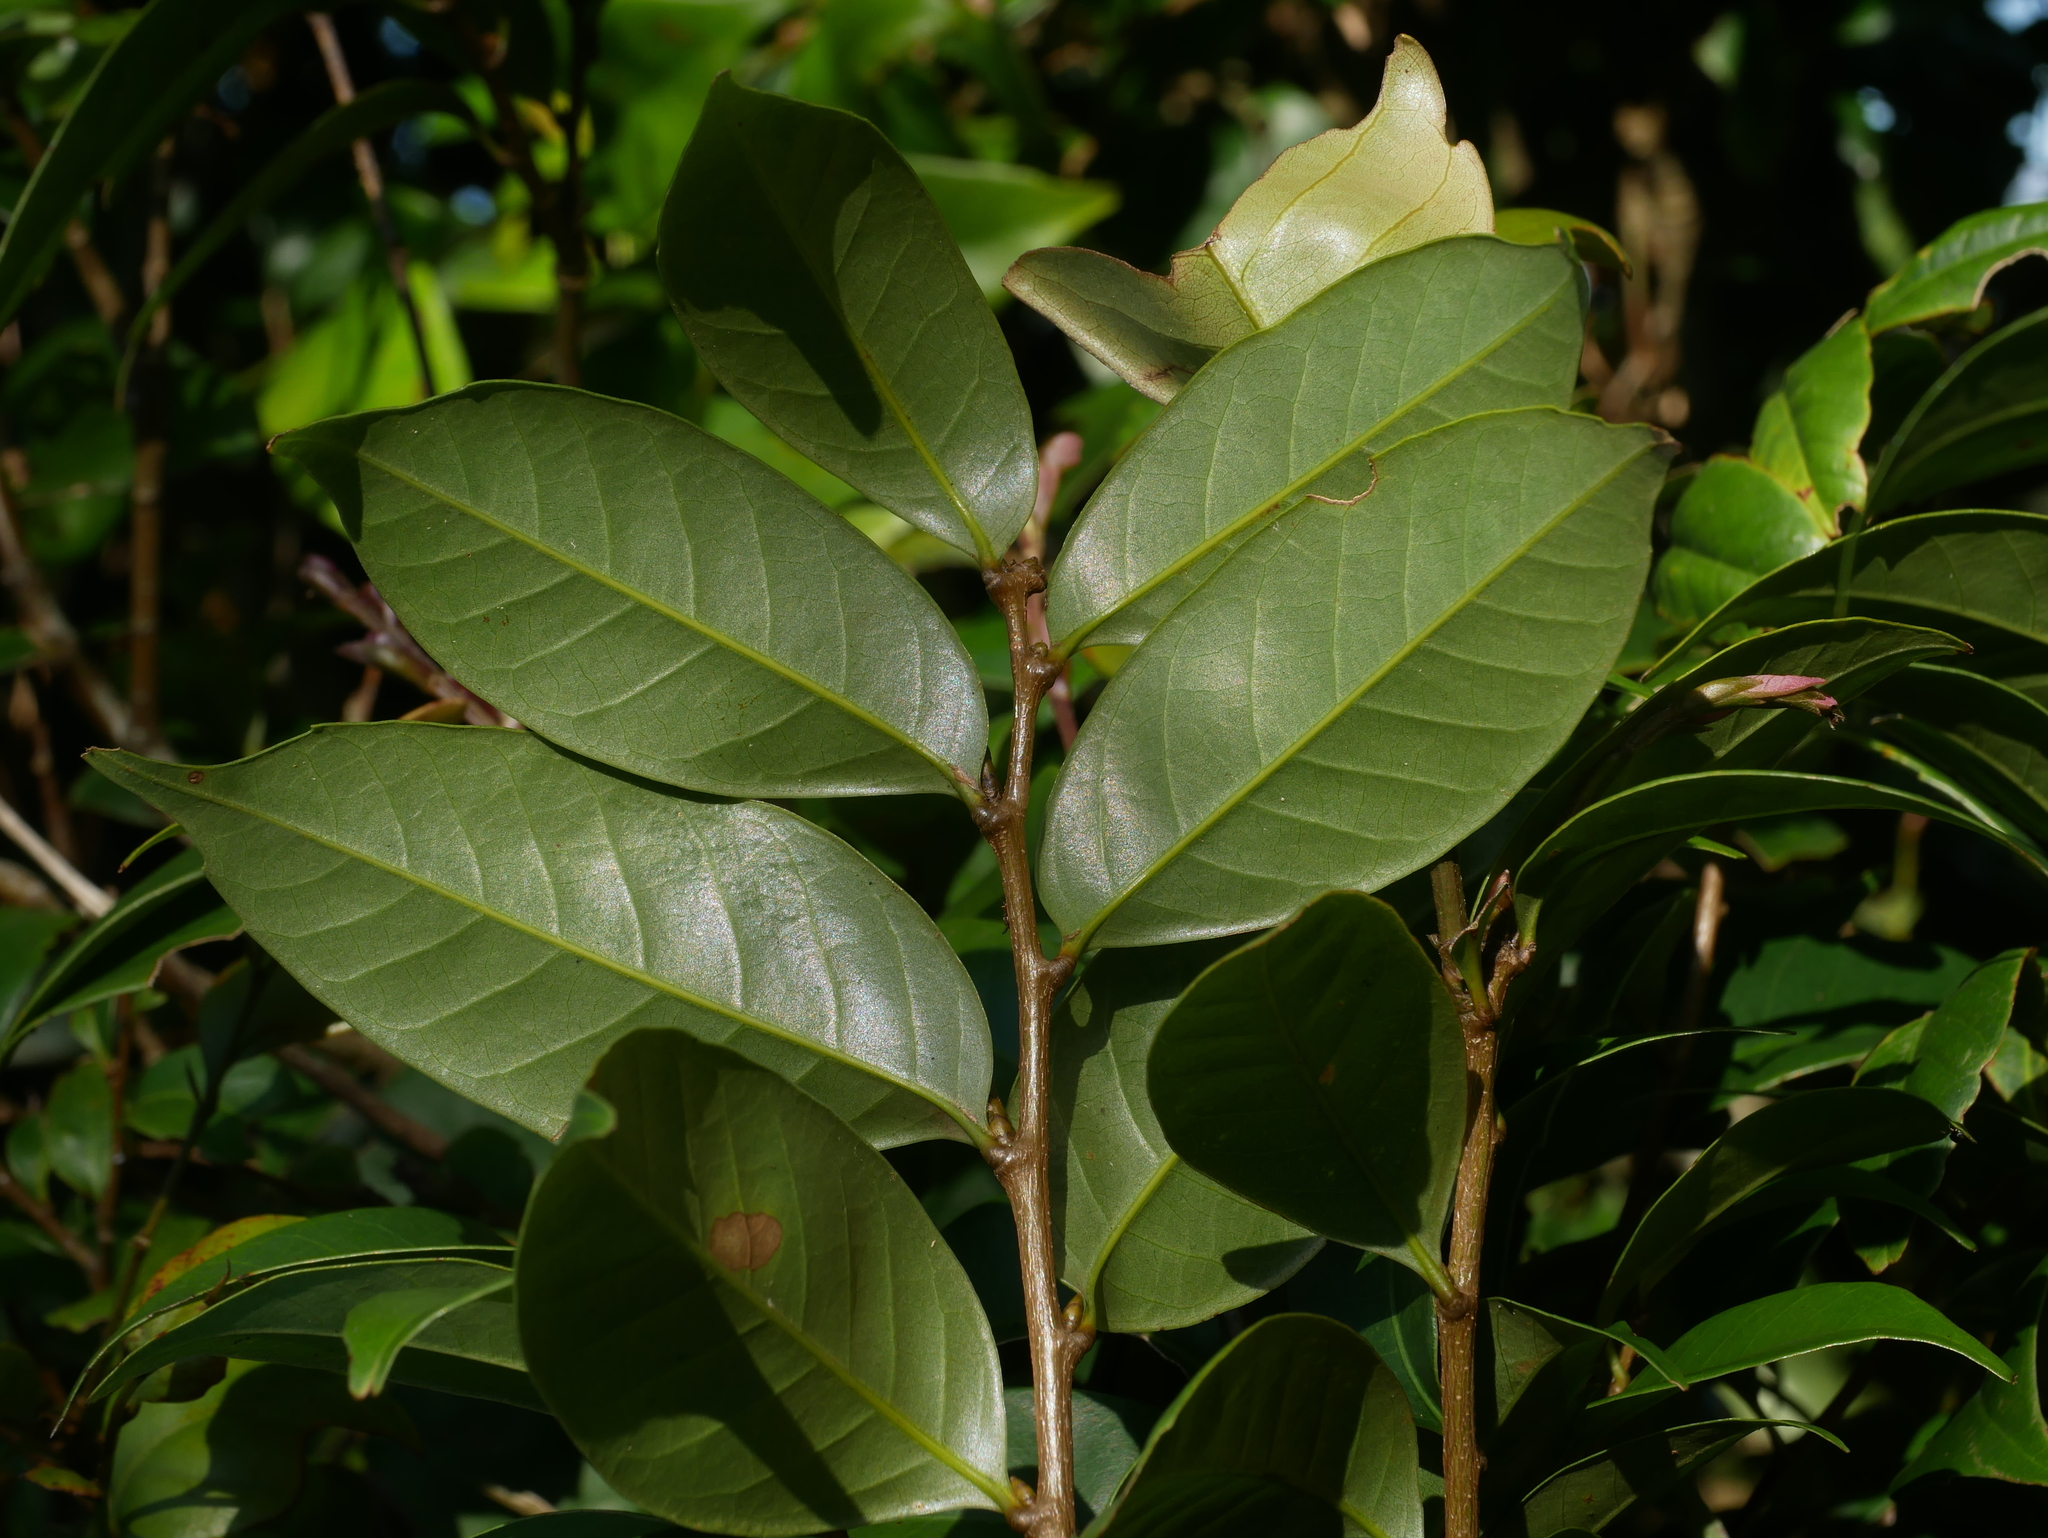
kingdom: Plantae
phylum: Tracheophyta
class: Magnoliopsida
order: Fagales
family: Fagaceae
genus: Lithocarpus
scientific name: Lithocarpus uraianus
